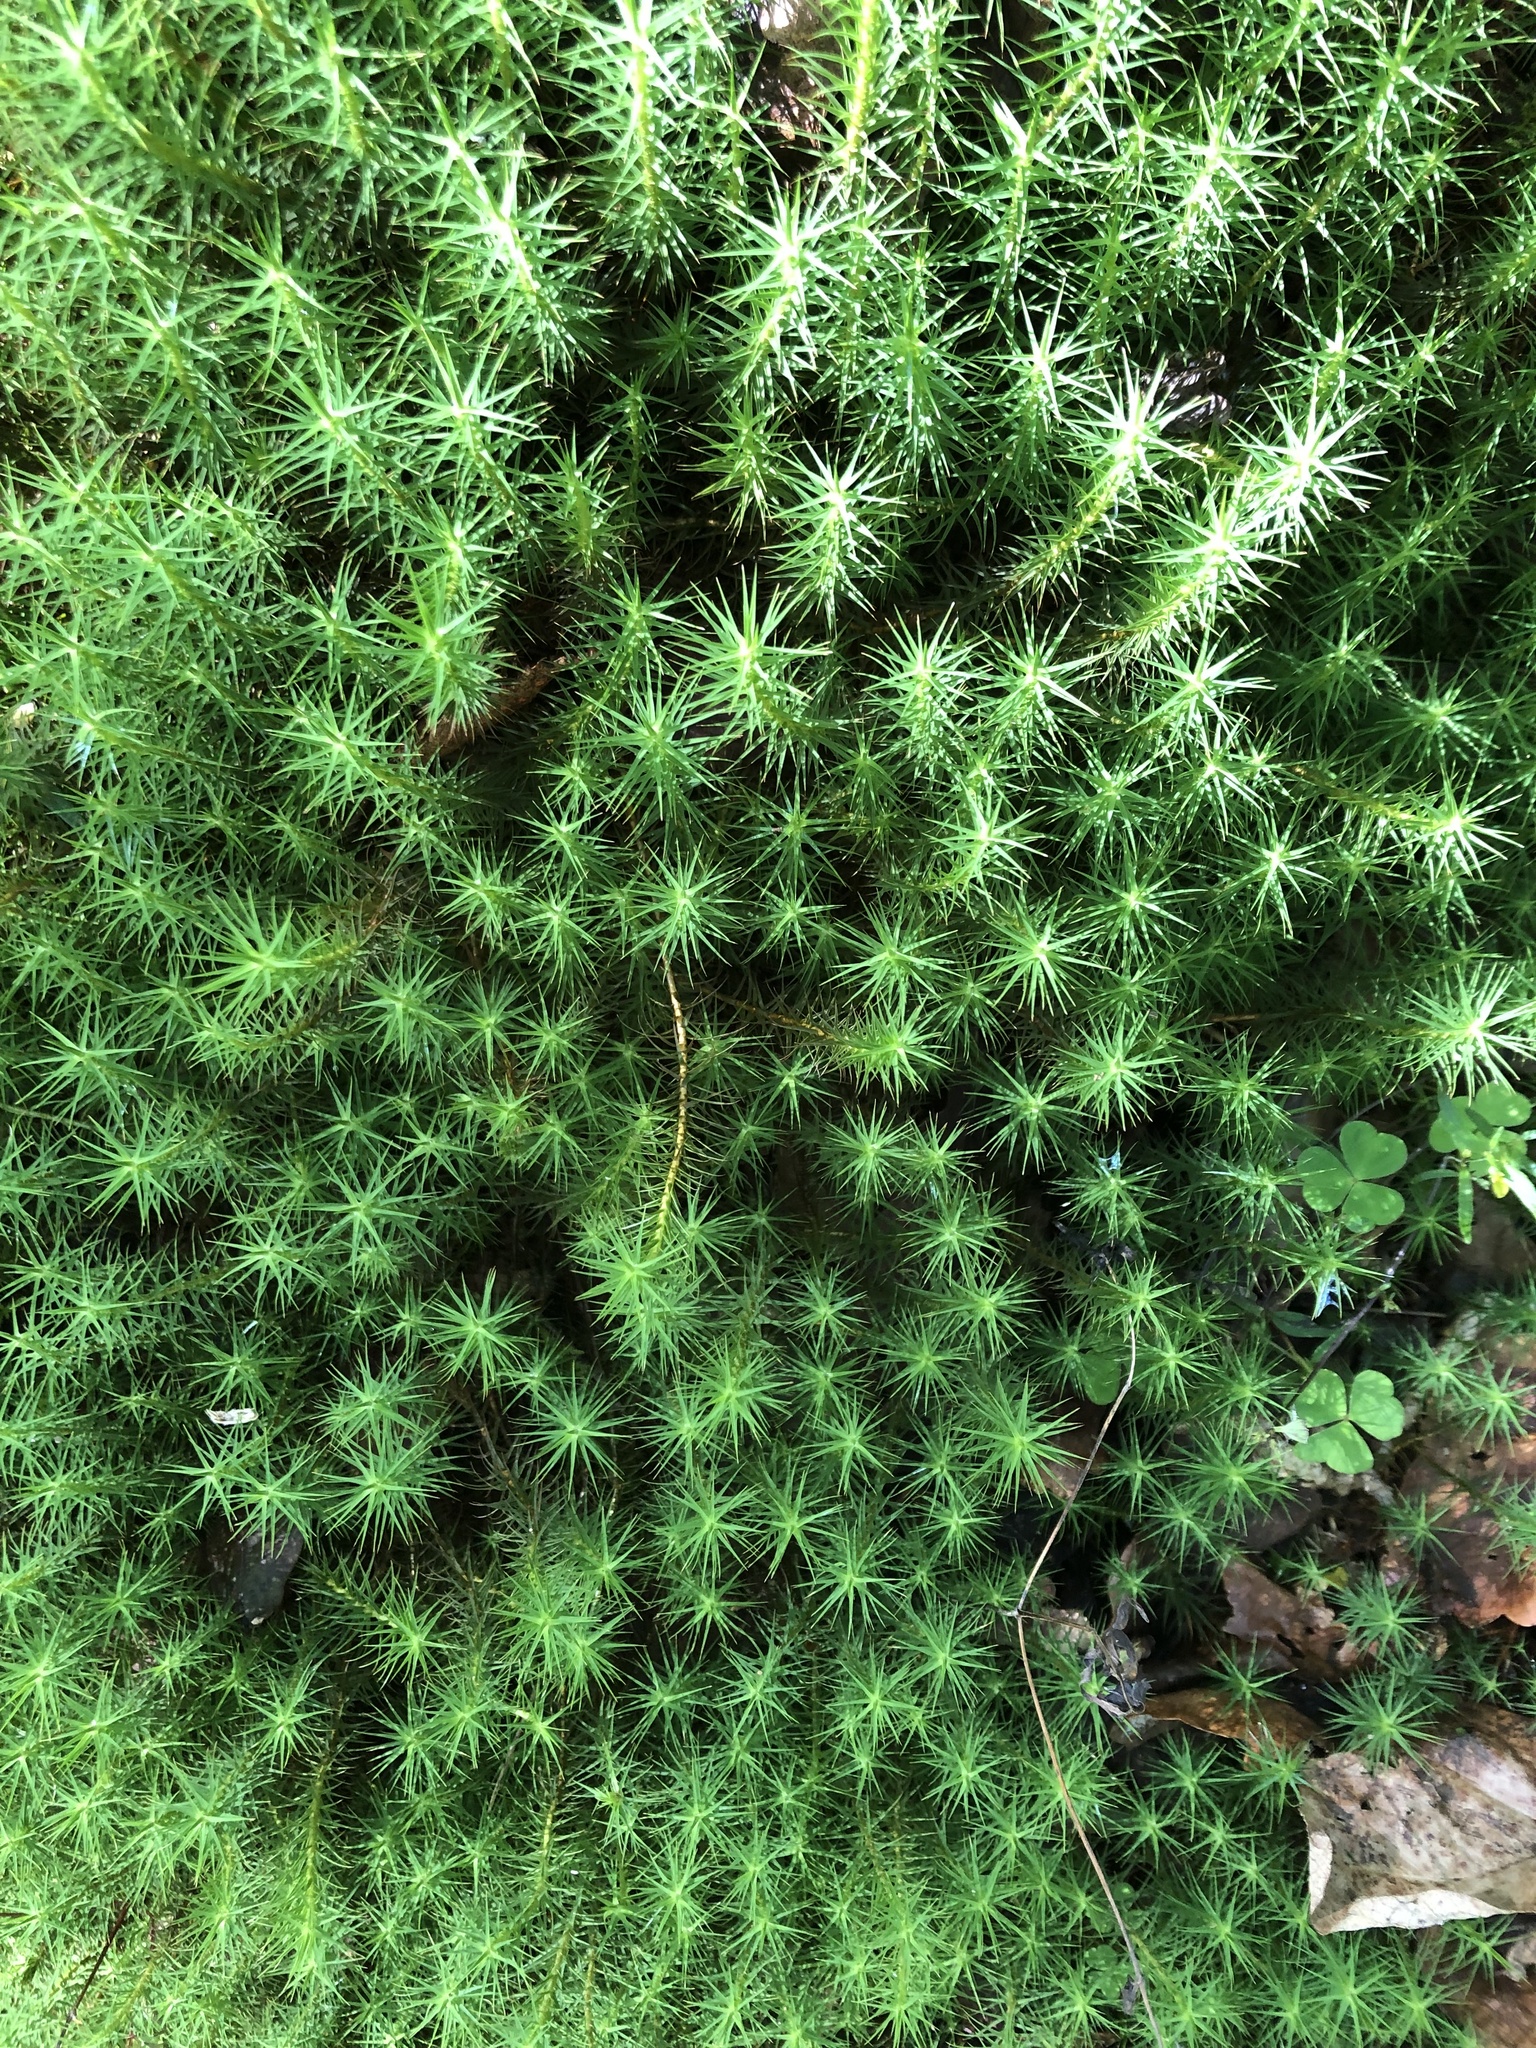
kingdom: Plantae
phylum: Bryophyta
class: Polytrichopsida
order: Polytrichales
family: Polytrichaceae
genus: Polytrichum
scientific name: Polytrichum commune
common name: Common haircap
